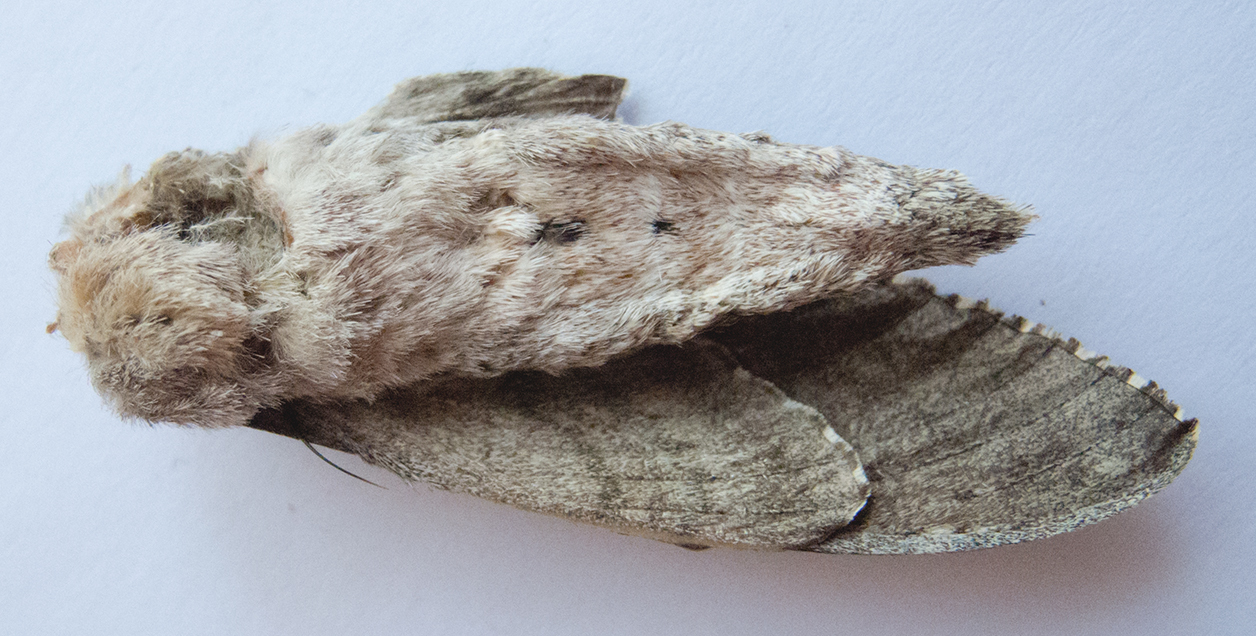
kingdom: Animalia
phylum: Arthropoda
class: Insecta
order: Lepidoptera
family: Sphingidae
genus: Agrius
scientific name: Agrius convolvuli
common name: Convolvulus hawkmoth
